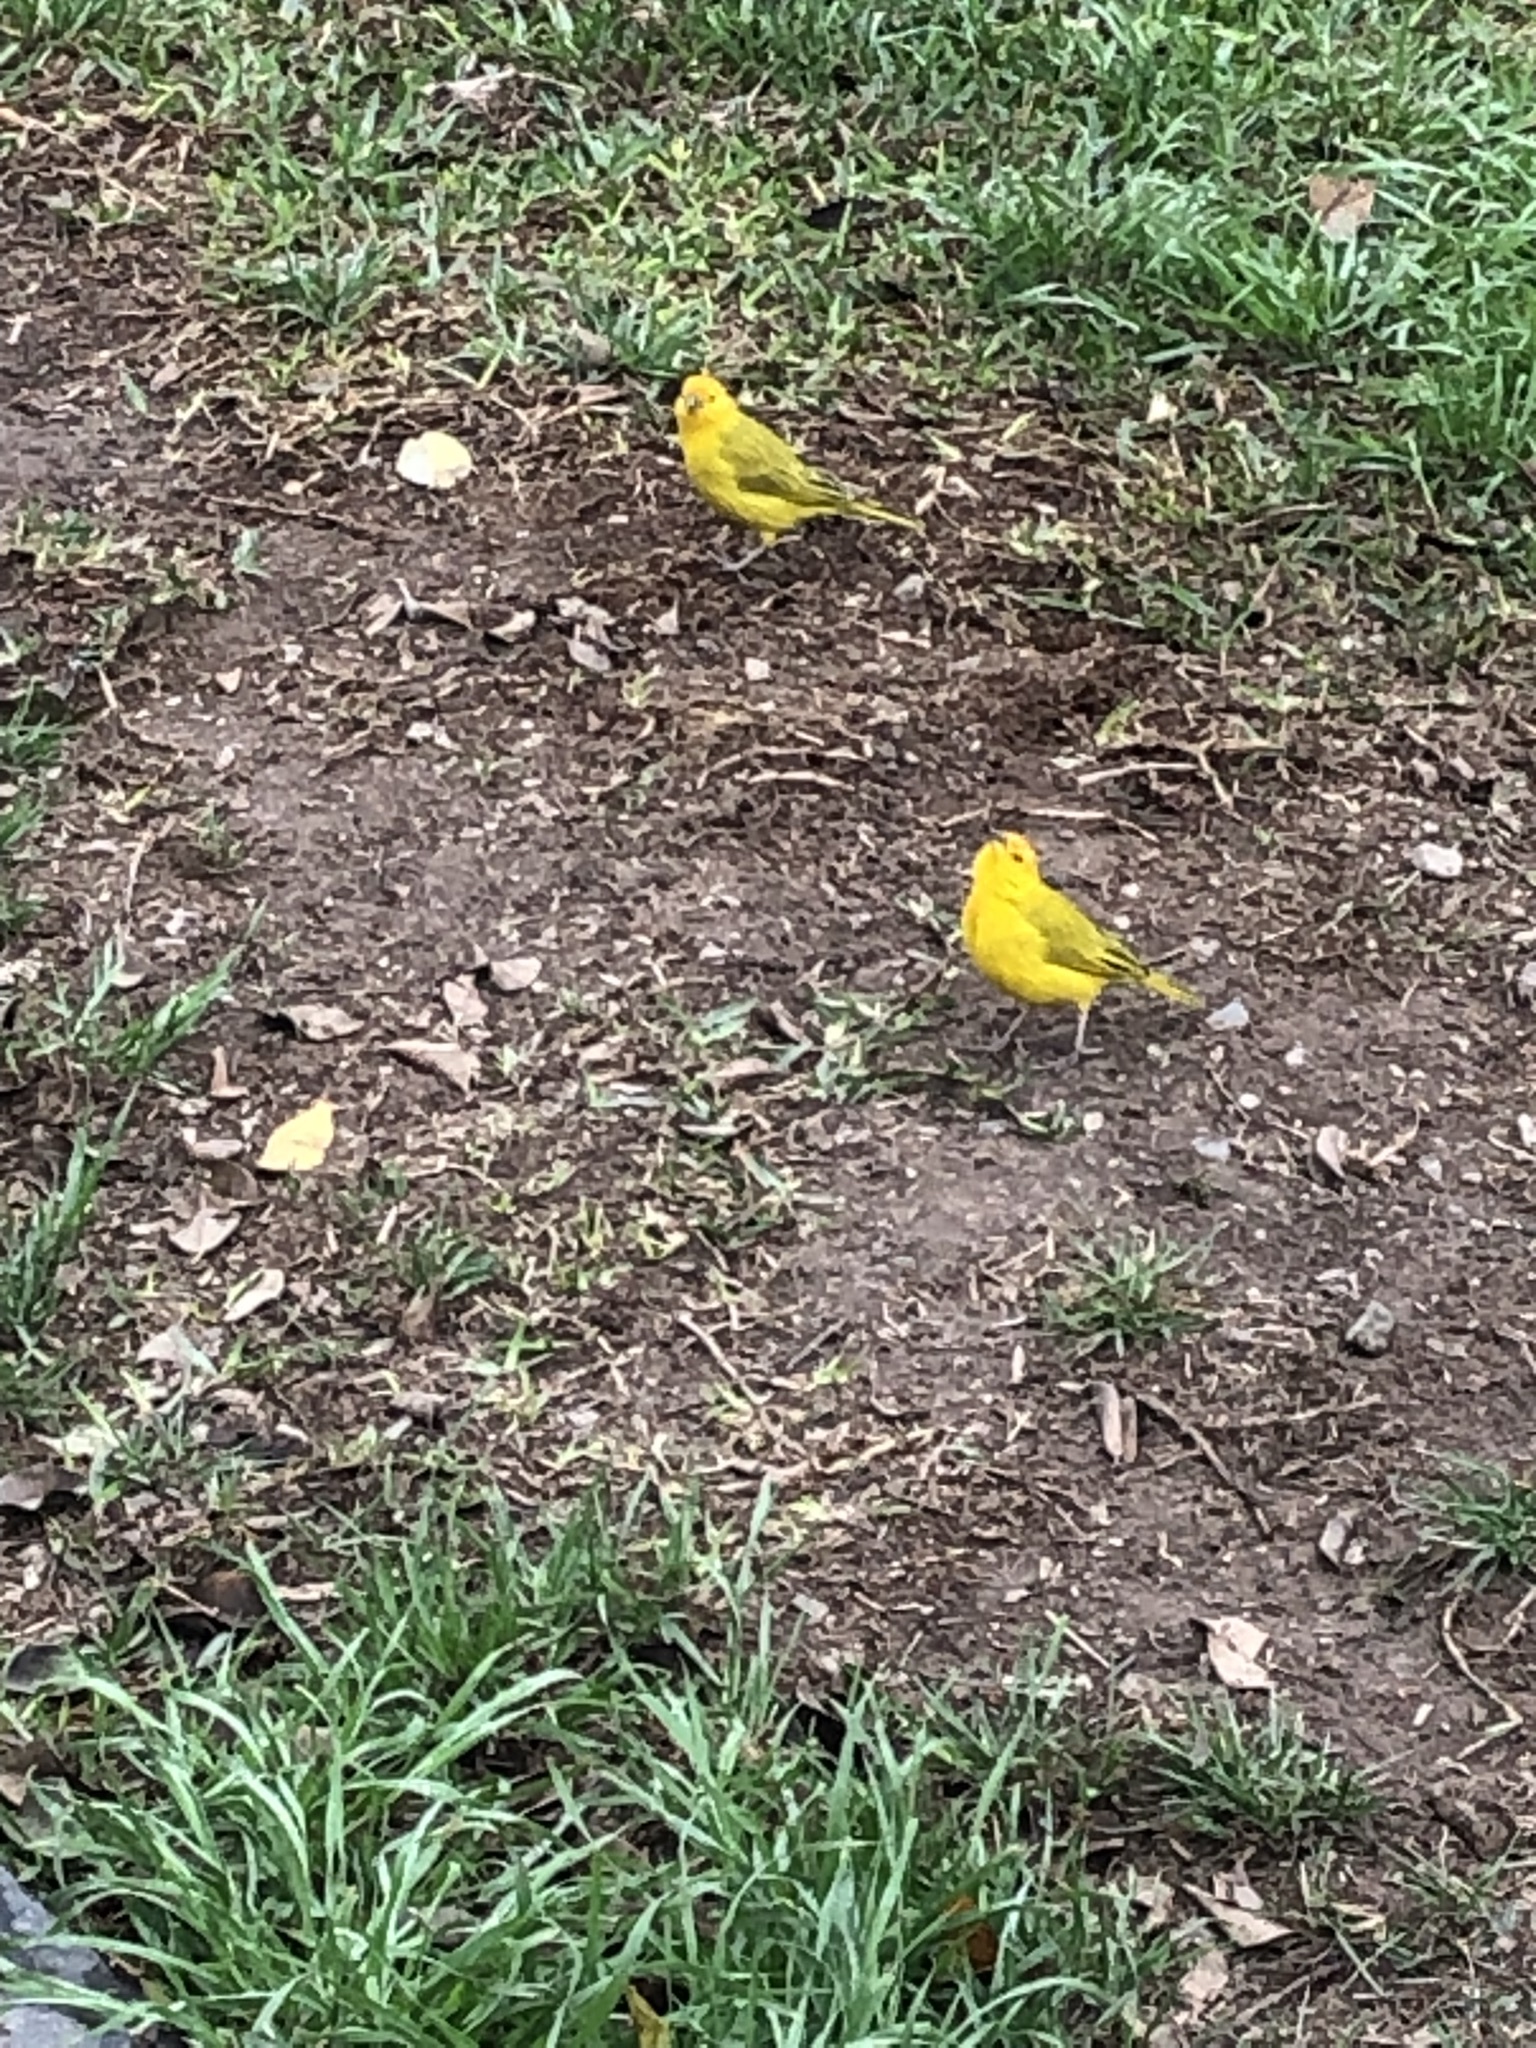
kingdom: Animalia
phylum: Chordata
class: Aves
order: Passeriformes
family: Thraupidae
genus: Sicalis
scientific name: Sicalis flaveola
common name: Saffron finch
